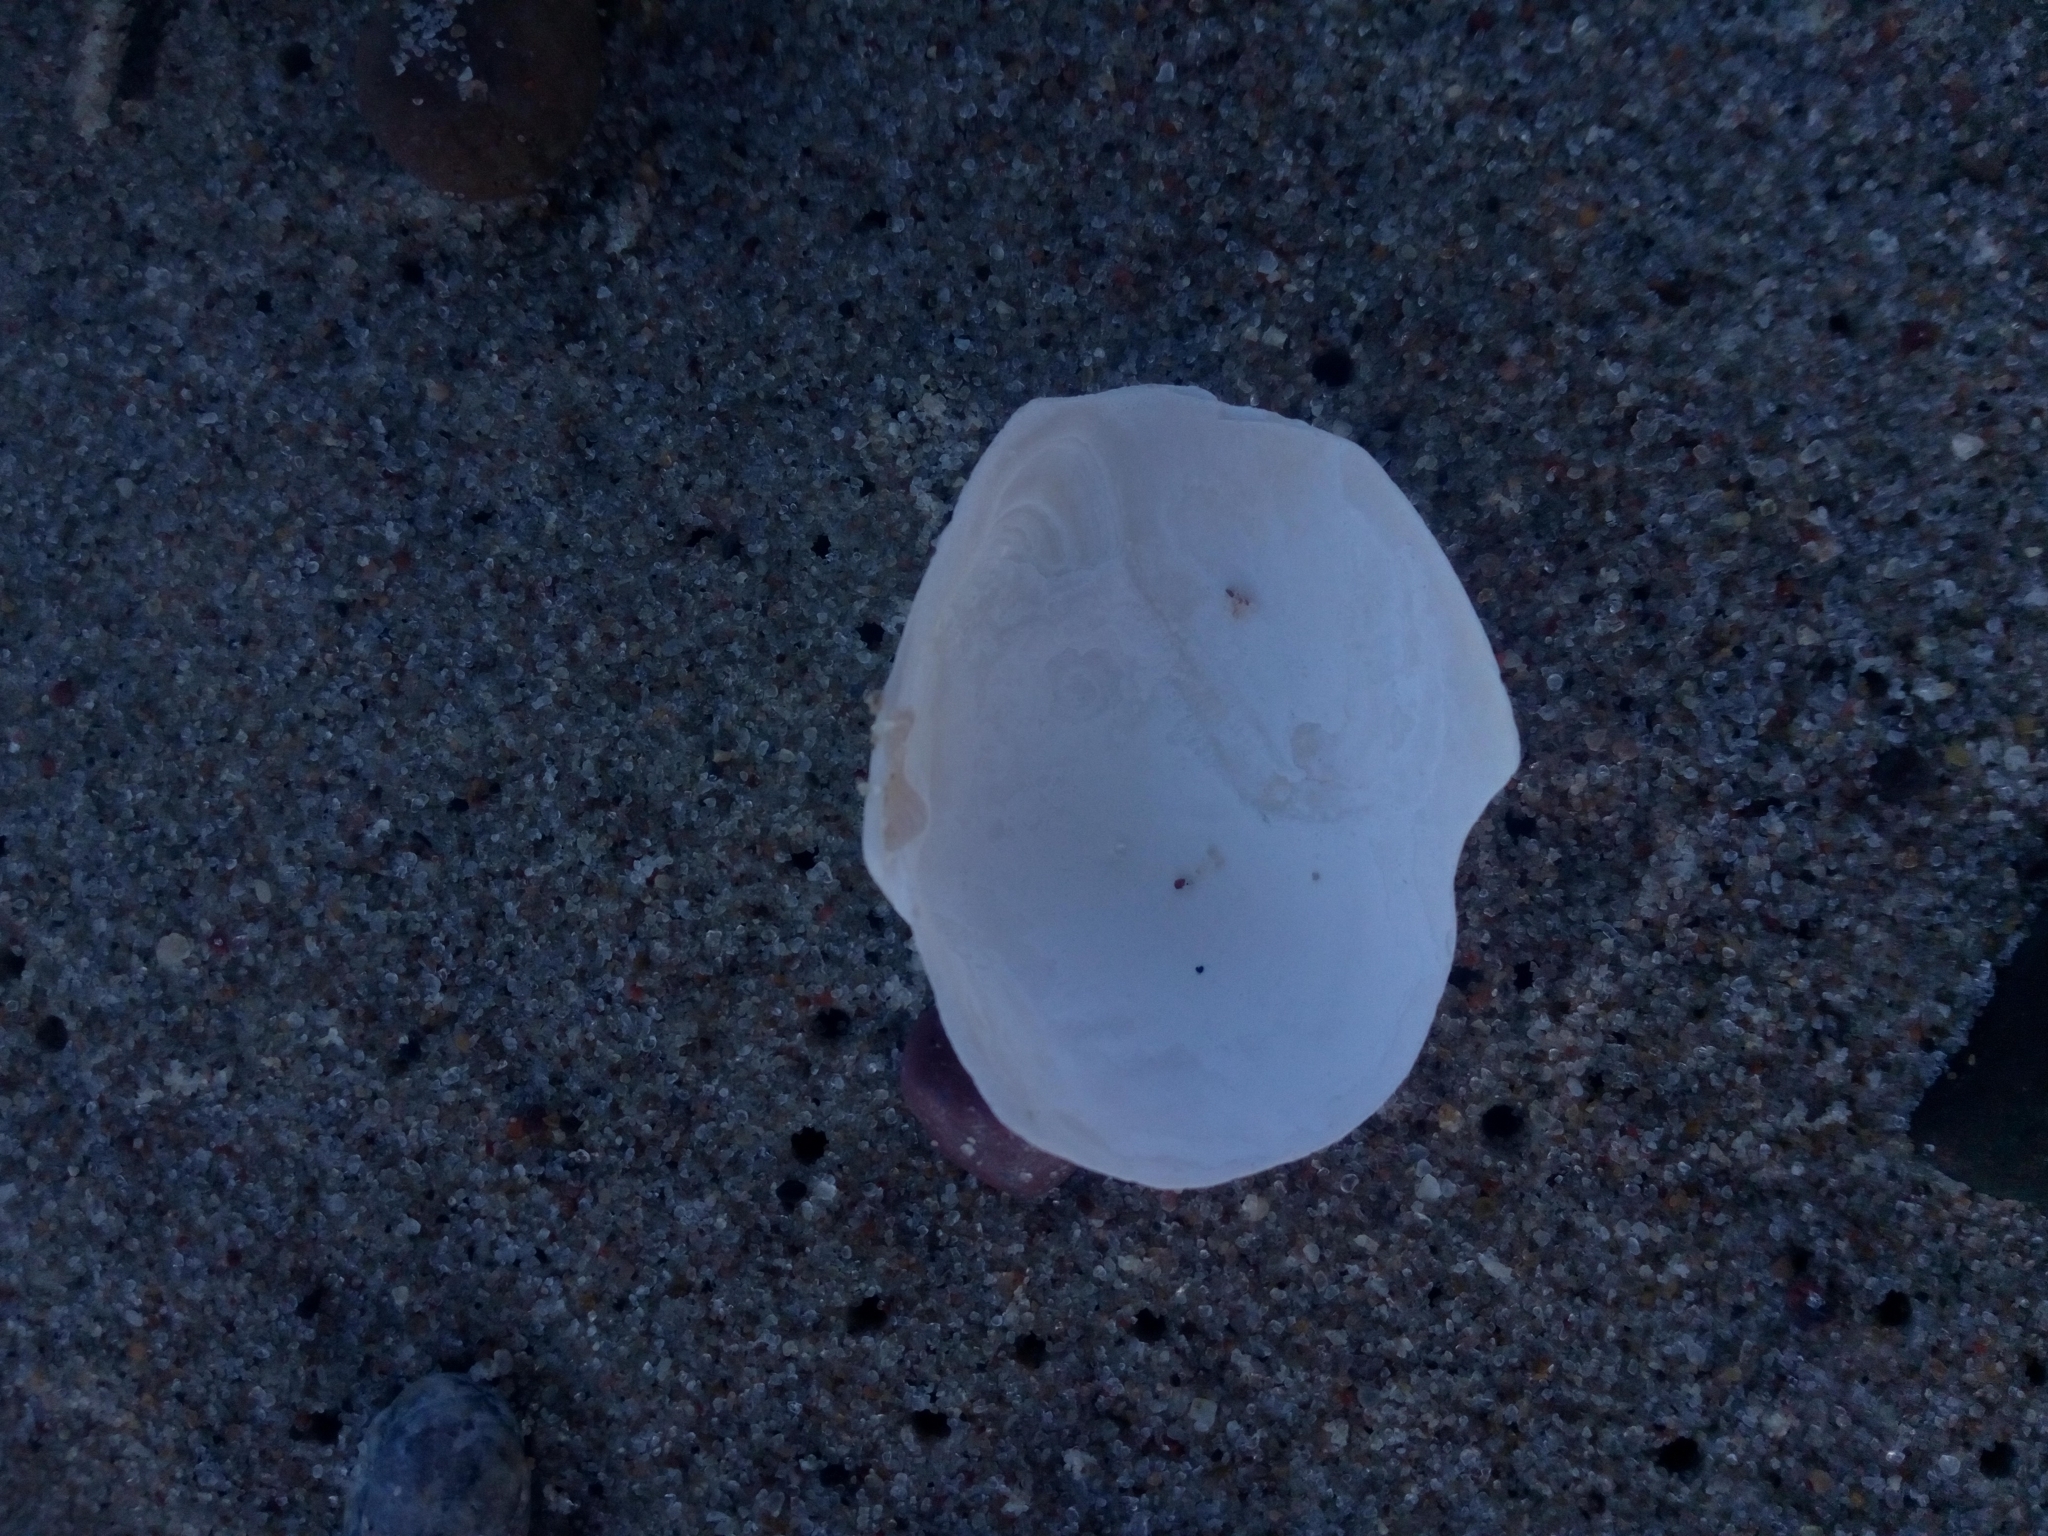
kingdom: Animalia
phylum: Mollusca
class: Bivalvia
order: Myida
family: Myidae
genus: Mya
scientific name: Mya arenaria
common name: Soft-shelled clam
